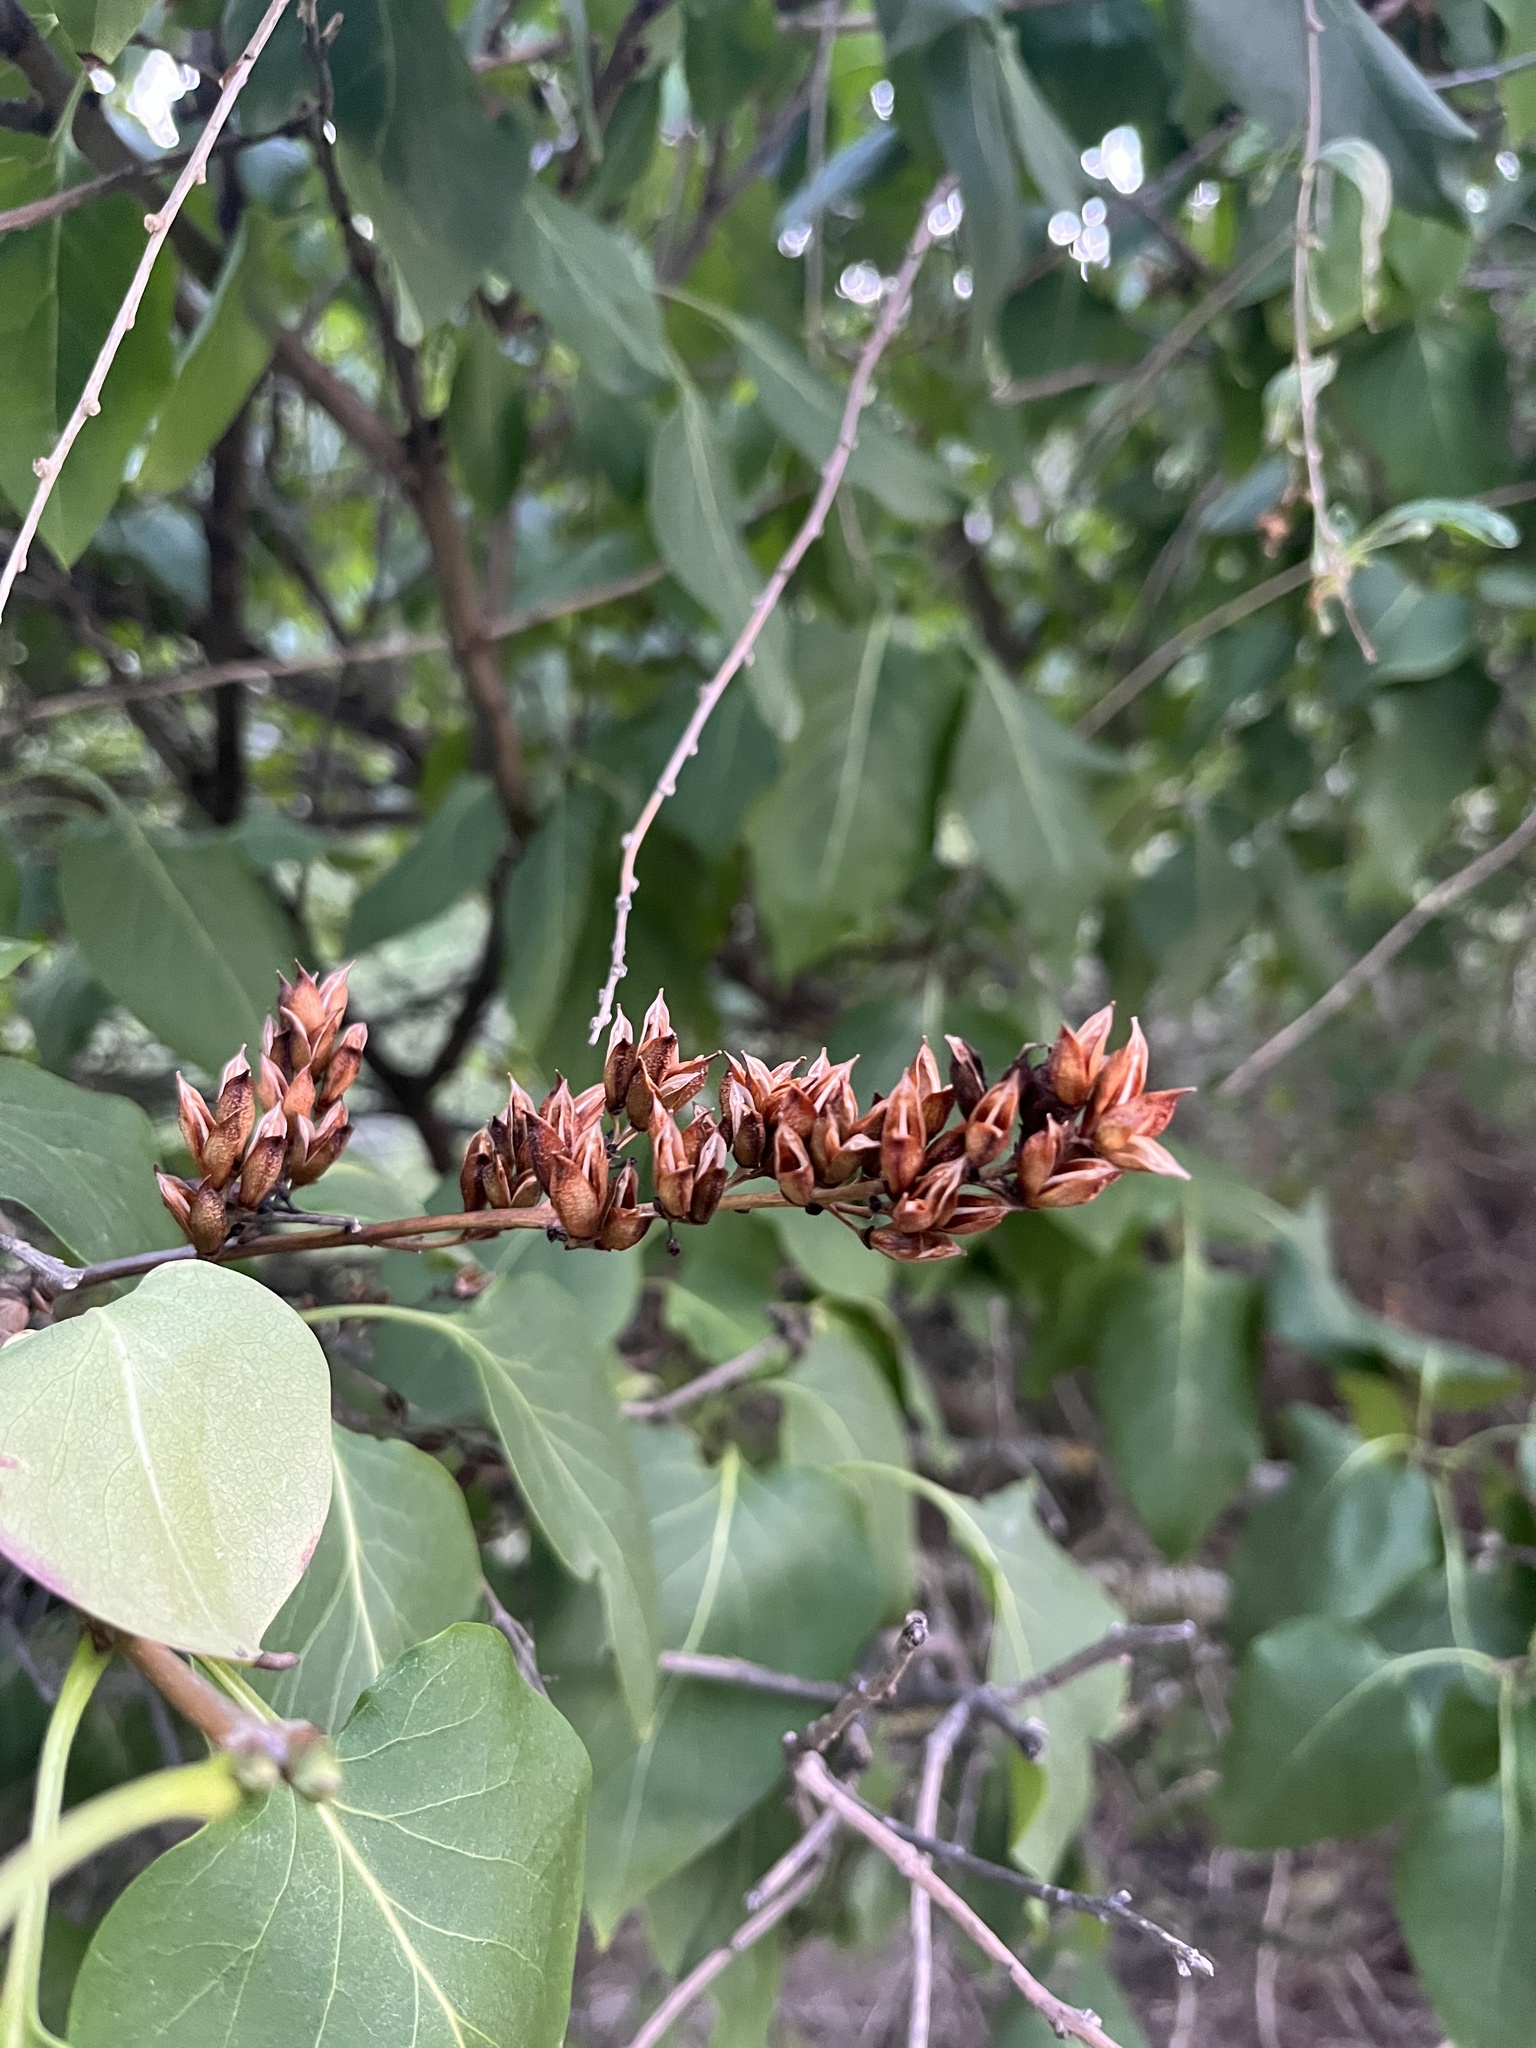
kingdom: Plantae
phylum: Tracheophyta
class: Magnoliopsida
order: Lamiales
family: Oleaceae
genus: Syringa
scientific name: Syringa vulgaris
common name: Common lilac
